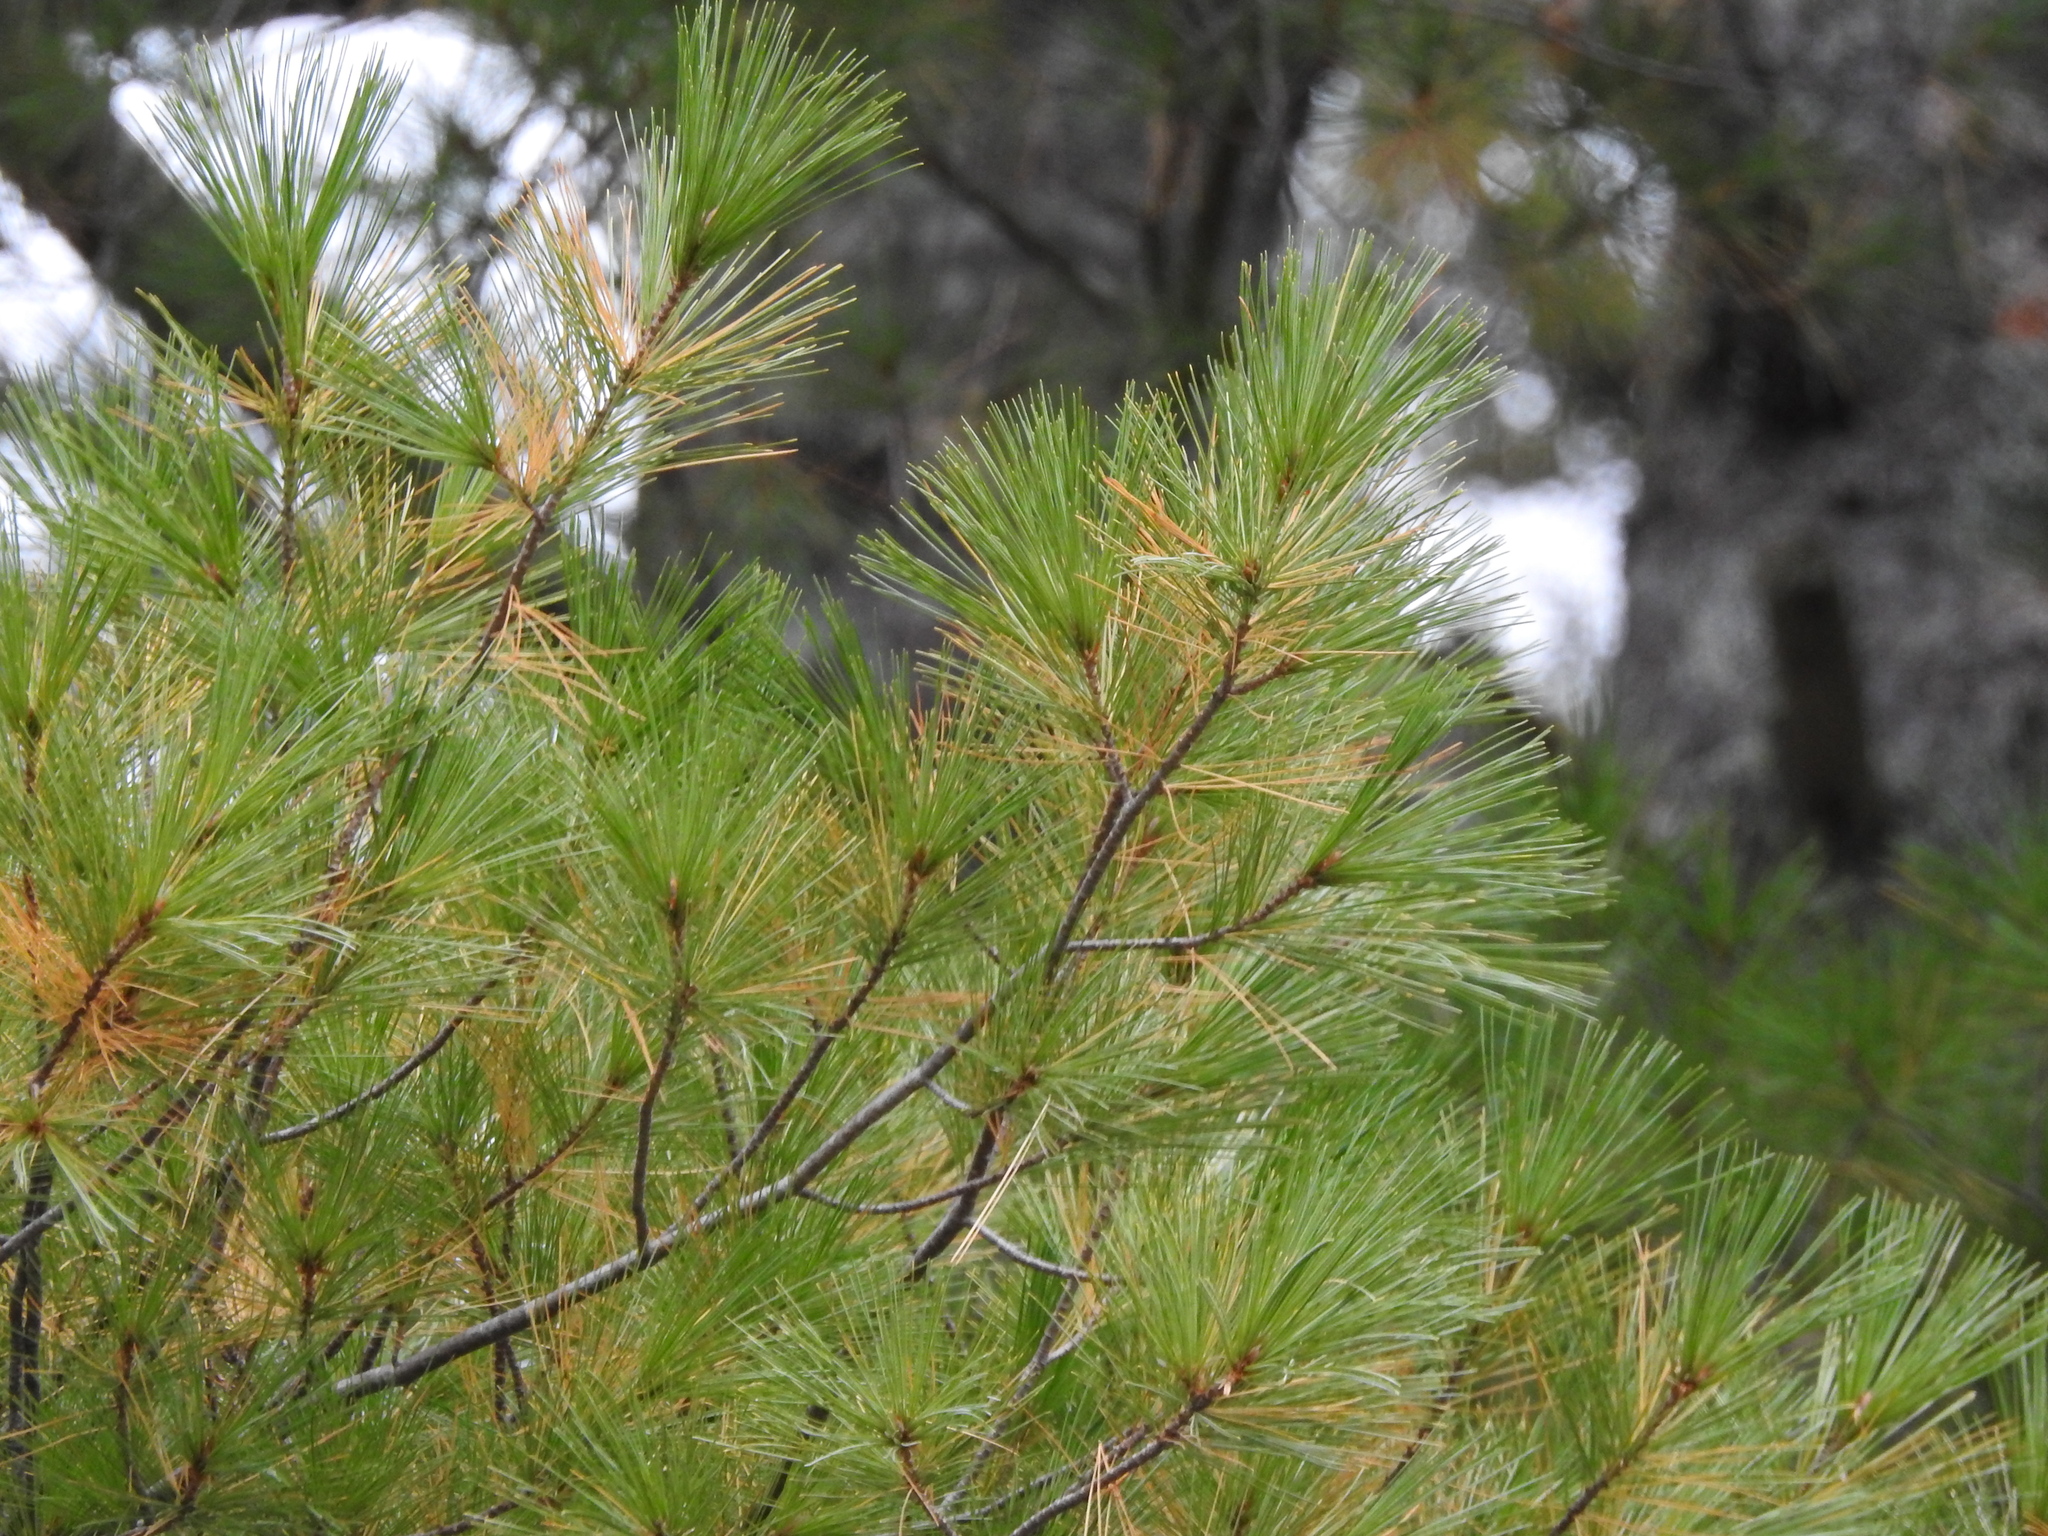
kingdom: Plantae
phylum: Tracheophyta
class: Pinopsida
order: Pinales
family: Pinaceae
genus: Pinus
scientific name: Pinus strobus
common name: Weymouth pine
